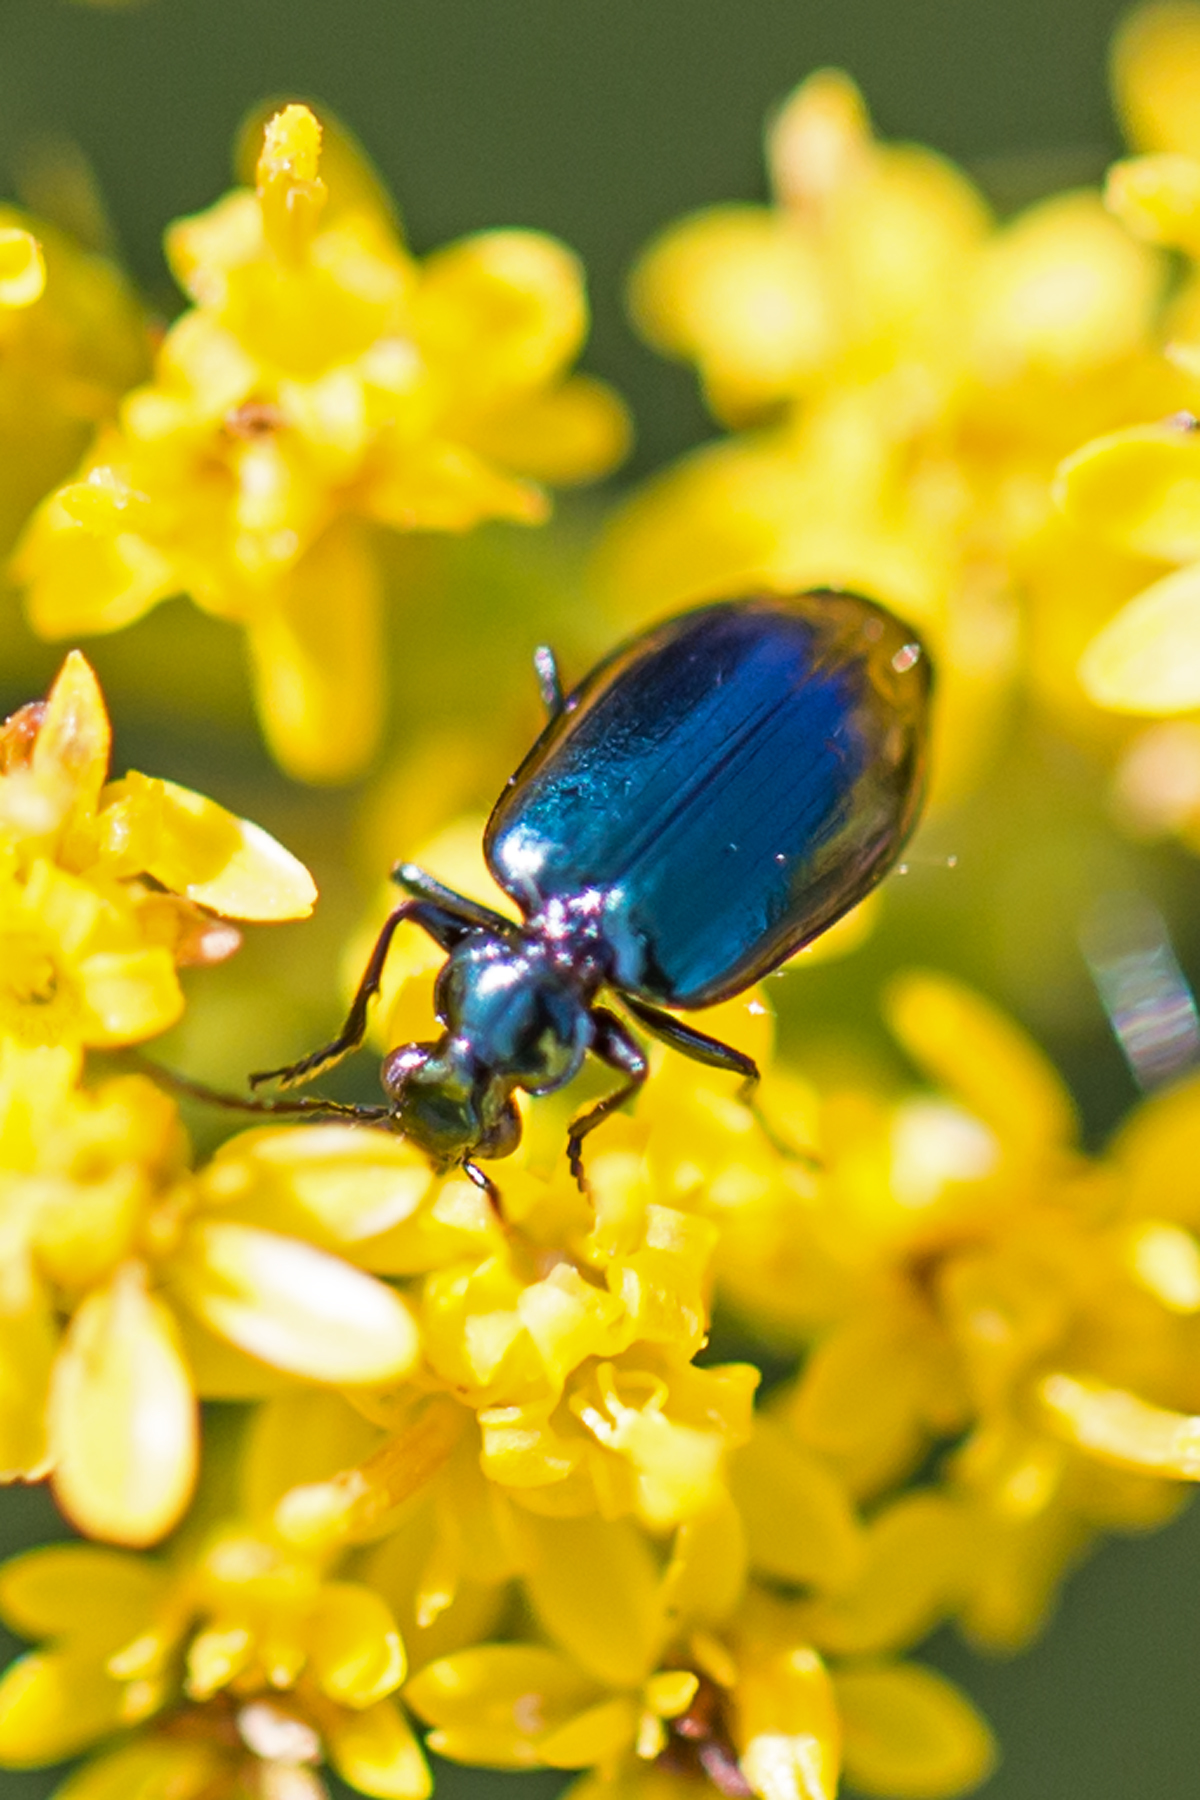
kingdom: Animalia
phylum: Arthropoda
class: Insecta
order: Coleoptera
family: Carabidae
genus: Lebia
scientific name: Lebia viridis
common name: Flower lebia beetle
